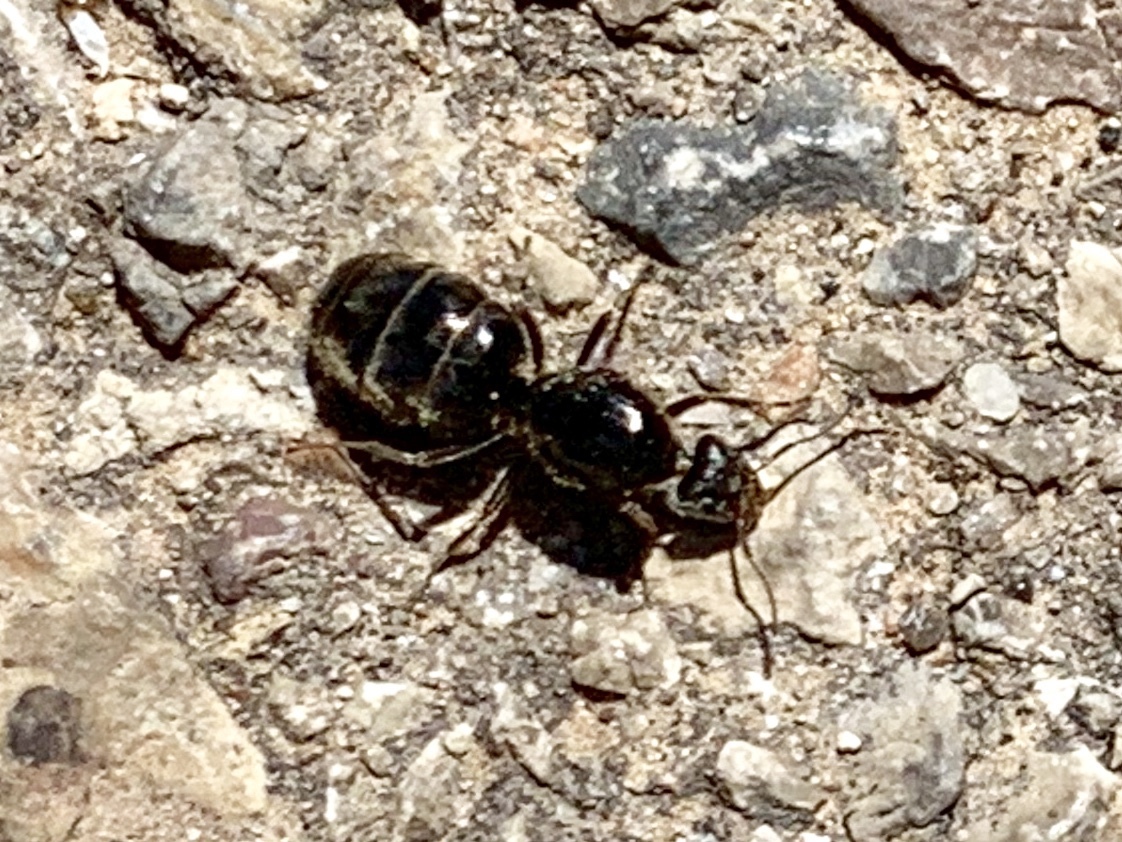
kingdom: Animalia
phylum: Arthropoda
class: Insecta
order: Hymenoptera
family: Formicidae
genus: Liometopum
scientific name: Liometopum apiculatum
